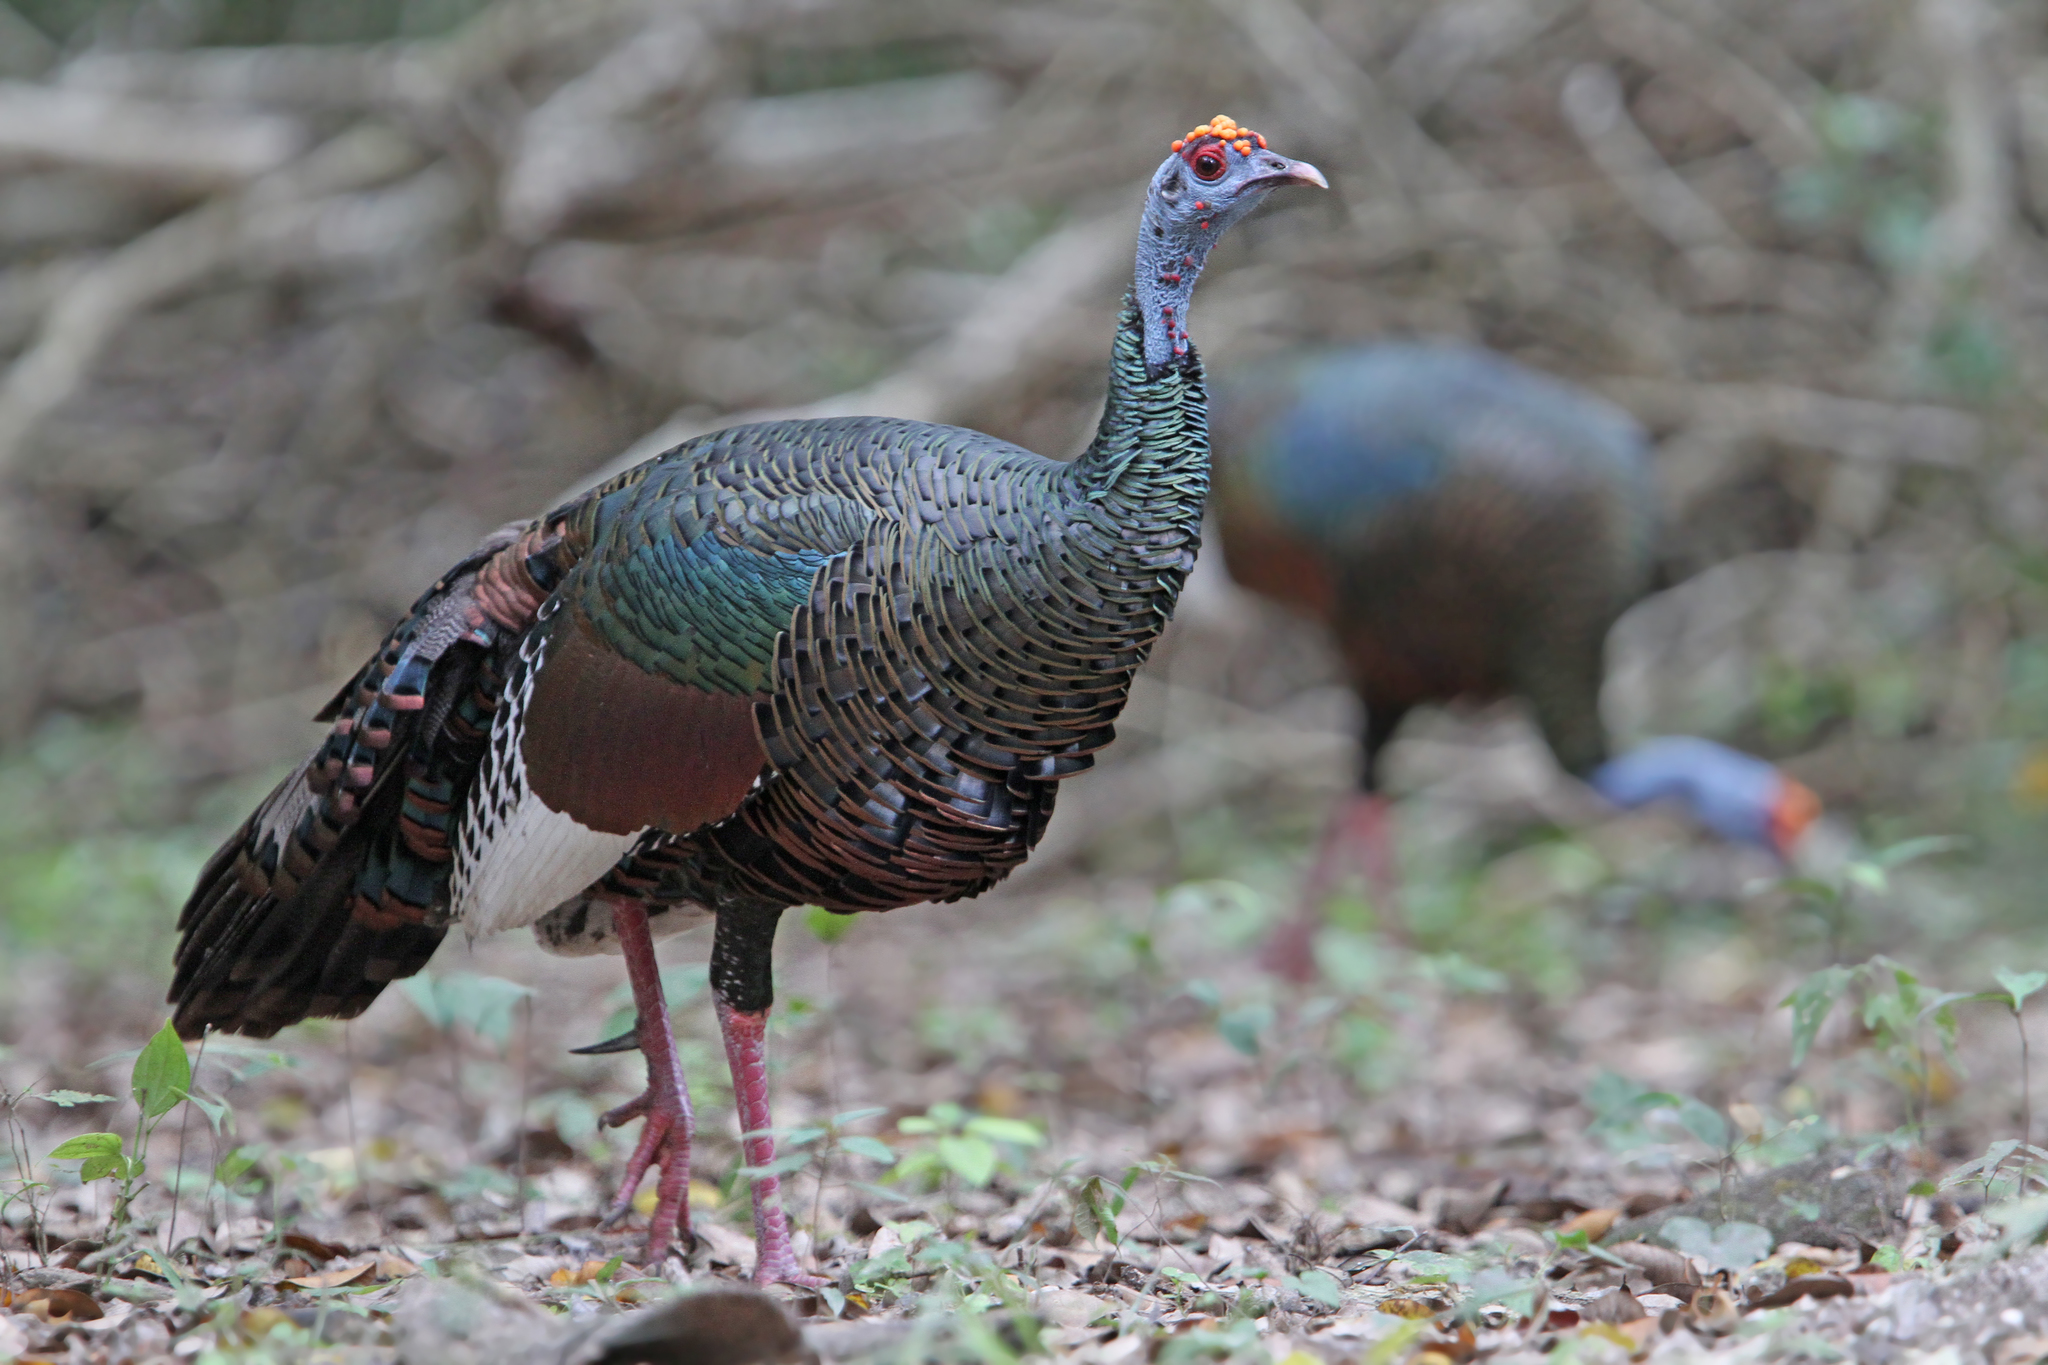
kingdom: Animalia
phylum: Chordata
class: Aves
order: Galliformes
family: Phasianidae
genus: Meleagris
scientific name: Meleagris ocellata
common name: Ocellated turkey
